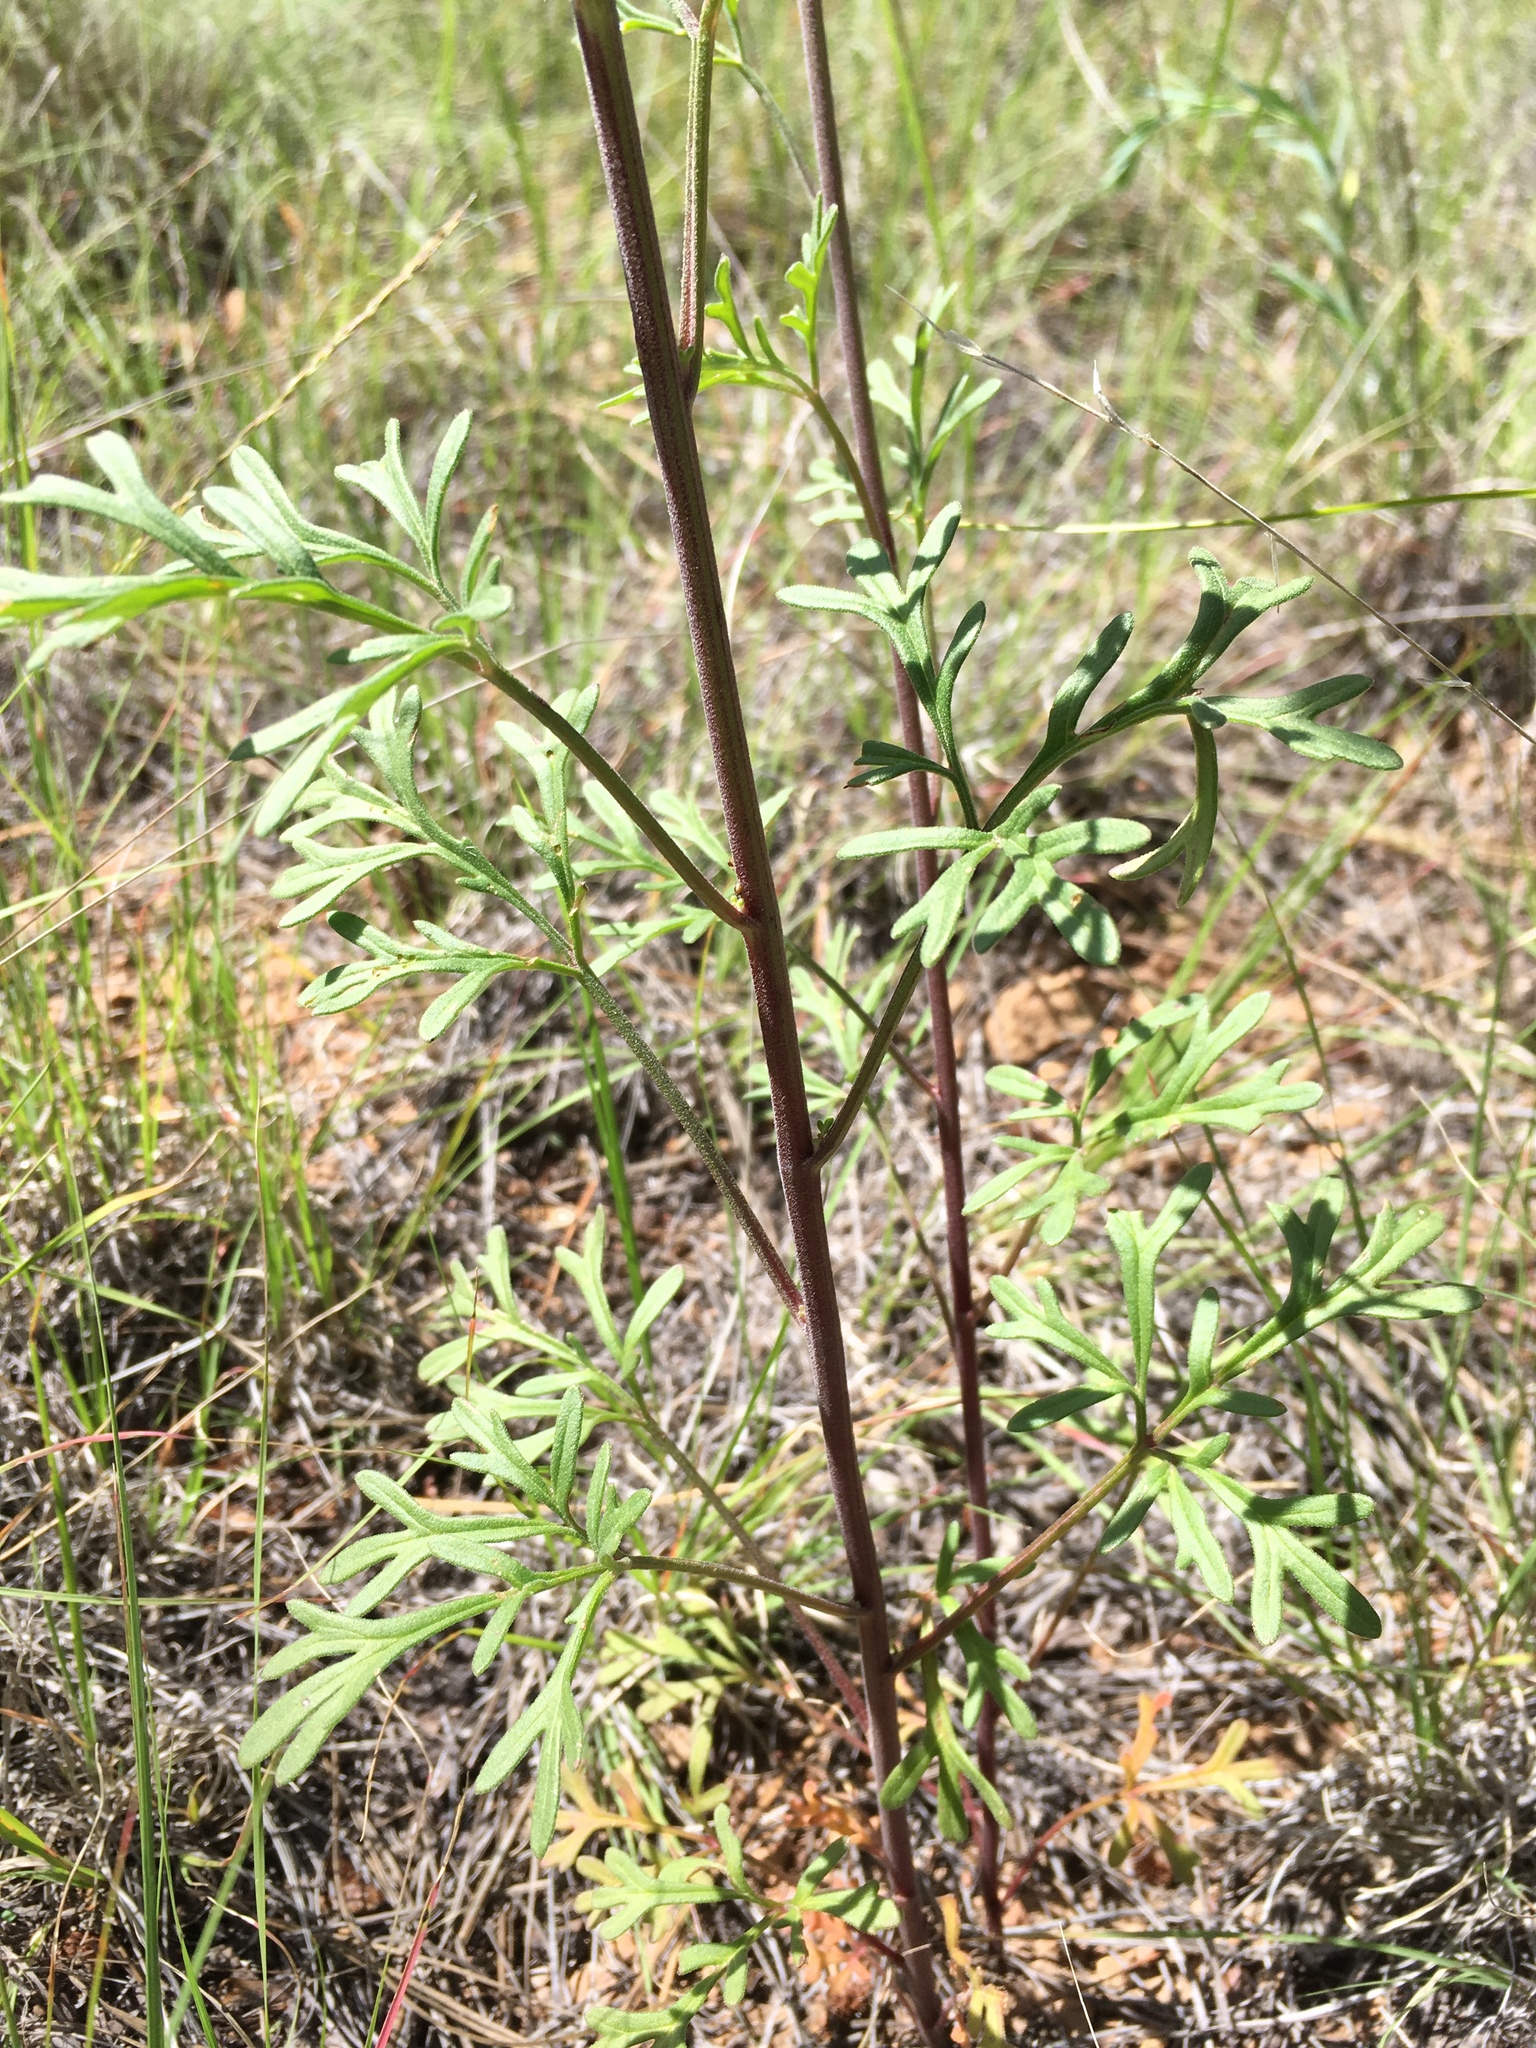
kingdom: Plantae
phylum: Tracheophyta
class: Magnoliopsida
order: Asterales
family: Asteraceae
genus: Hymenothrix
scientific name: Hymenothrix dissecta
